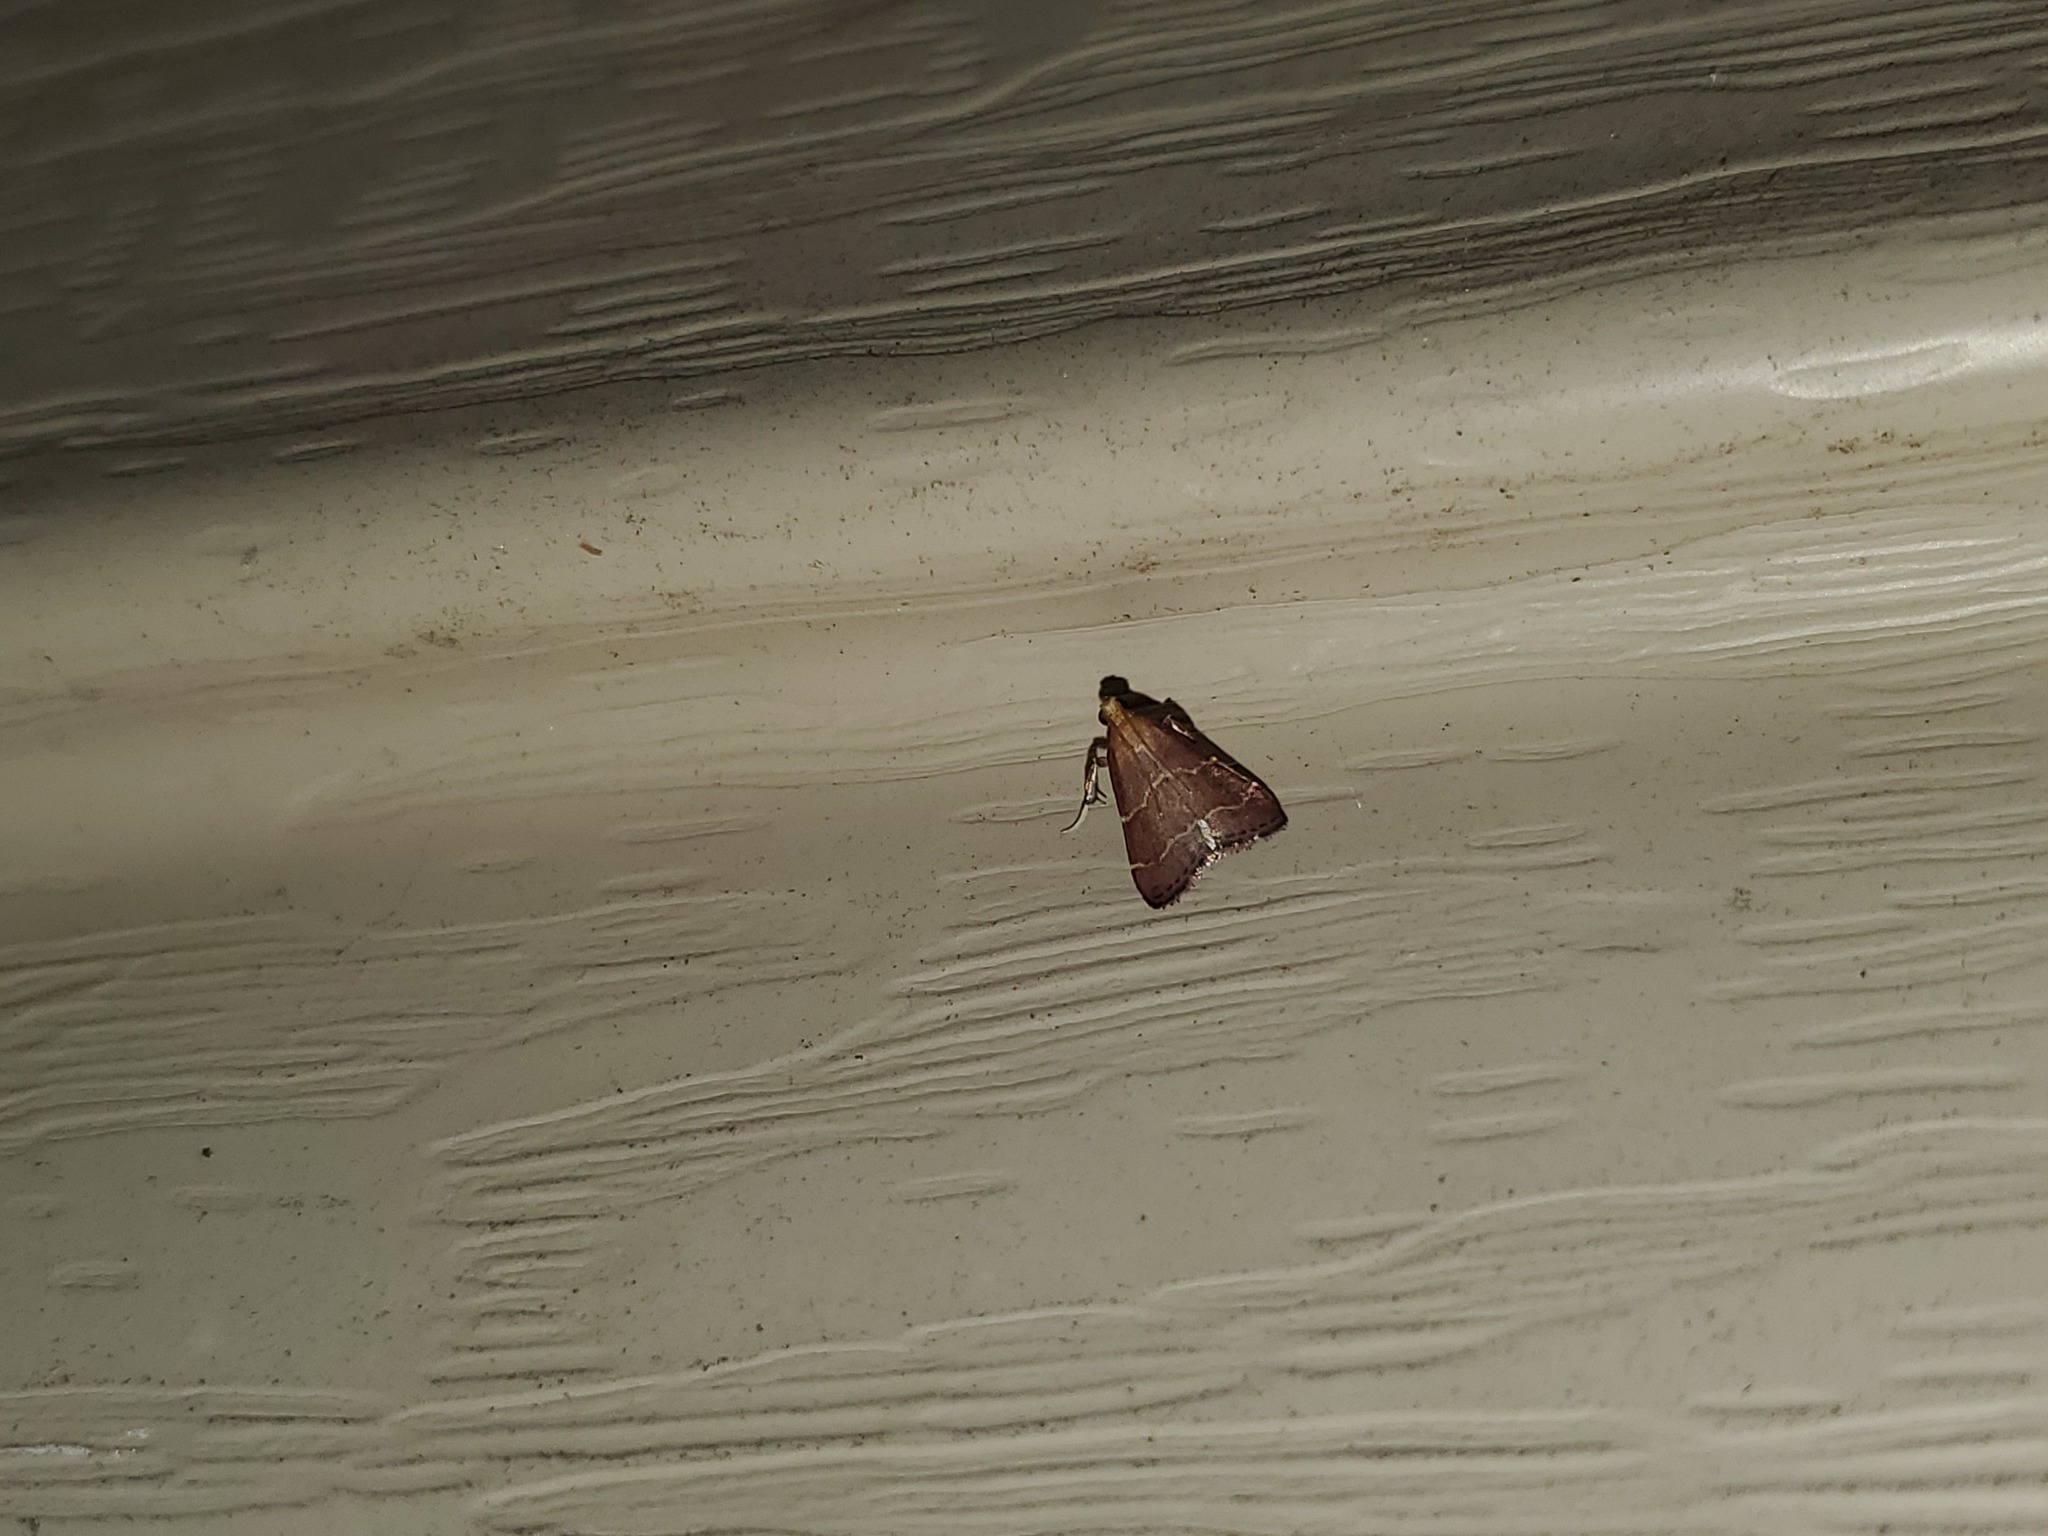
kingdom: Animalia
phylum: Arthropoda
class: Insecta
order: Lepidoptera
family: Pyralidae
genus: Arta
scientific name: Arta statalis
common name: Posturing arta moth
